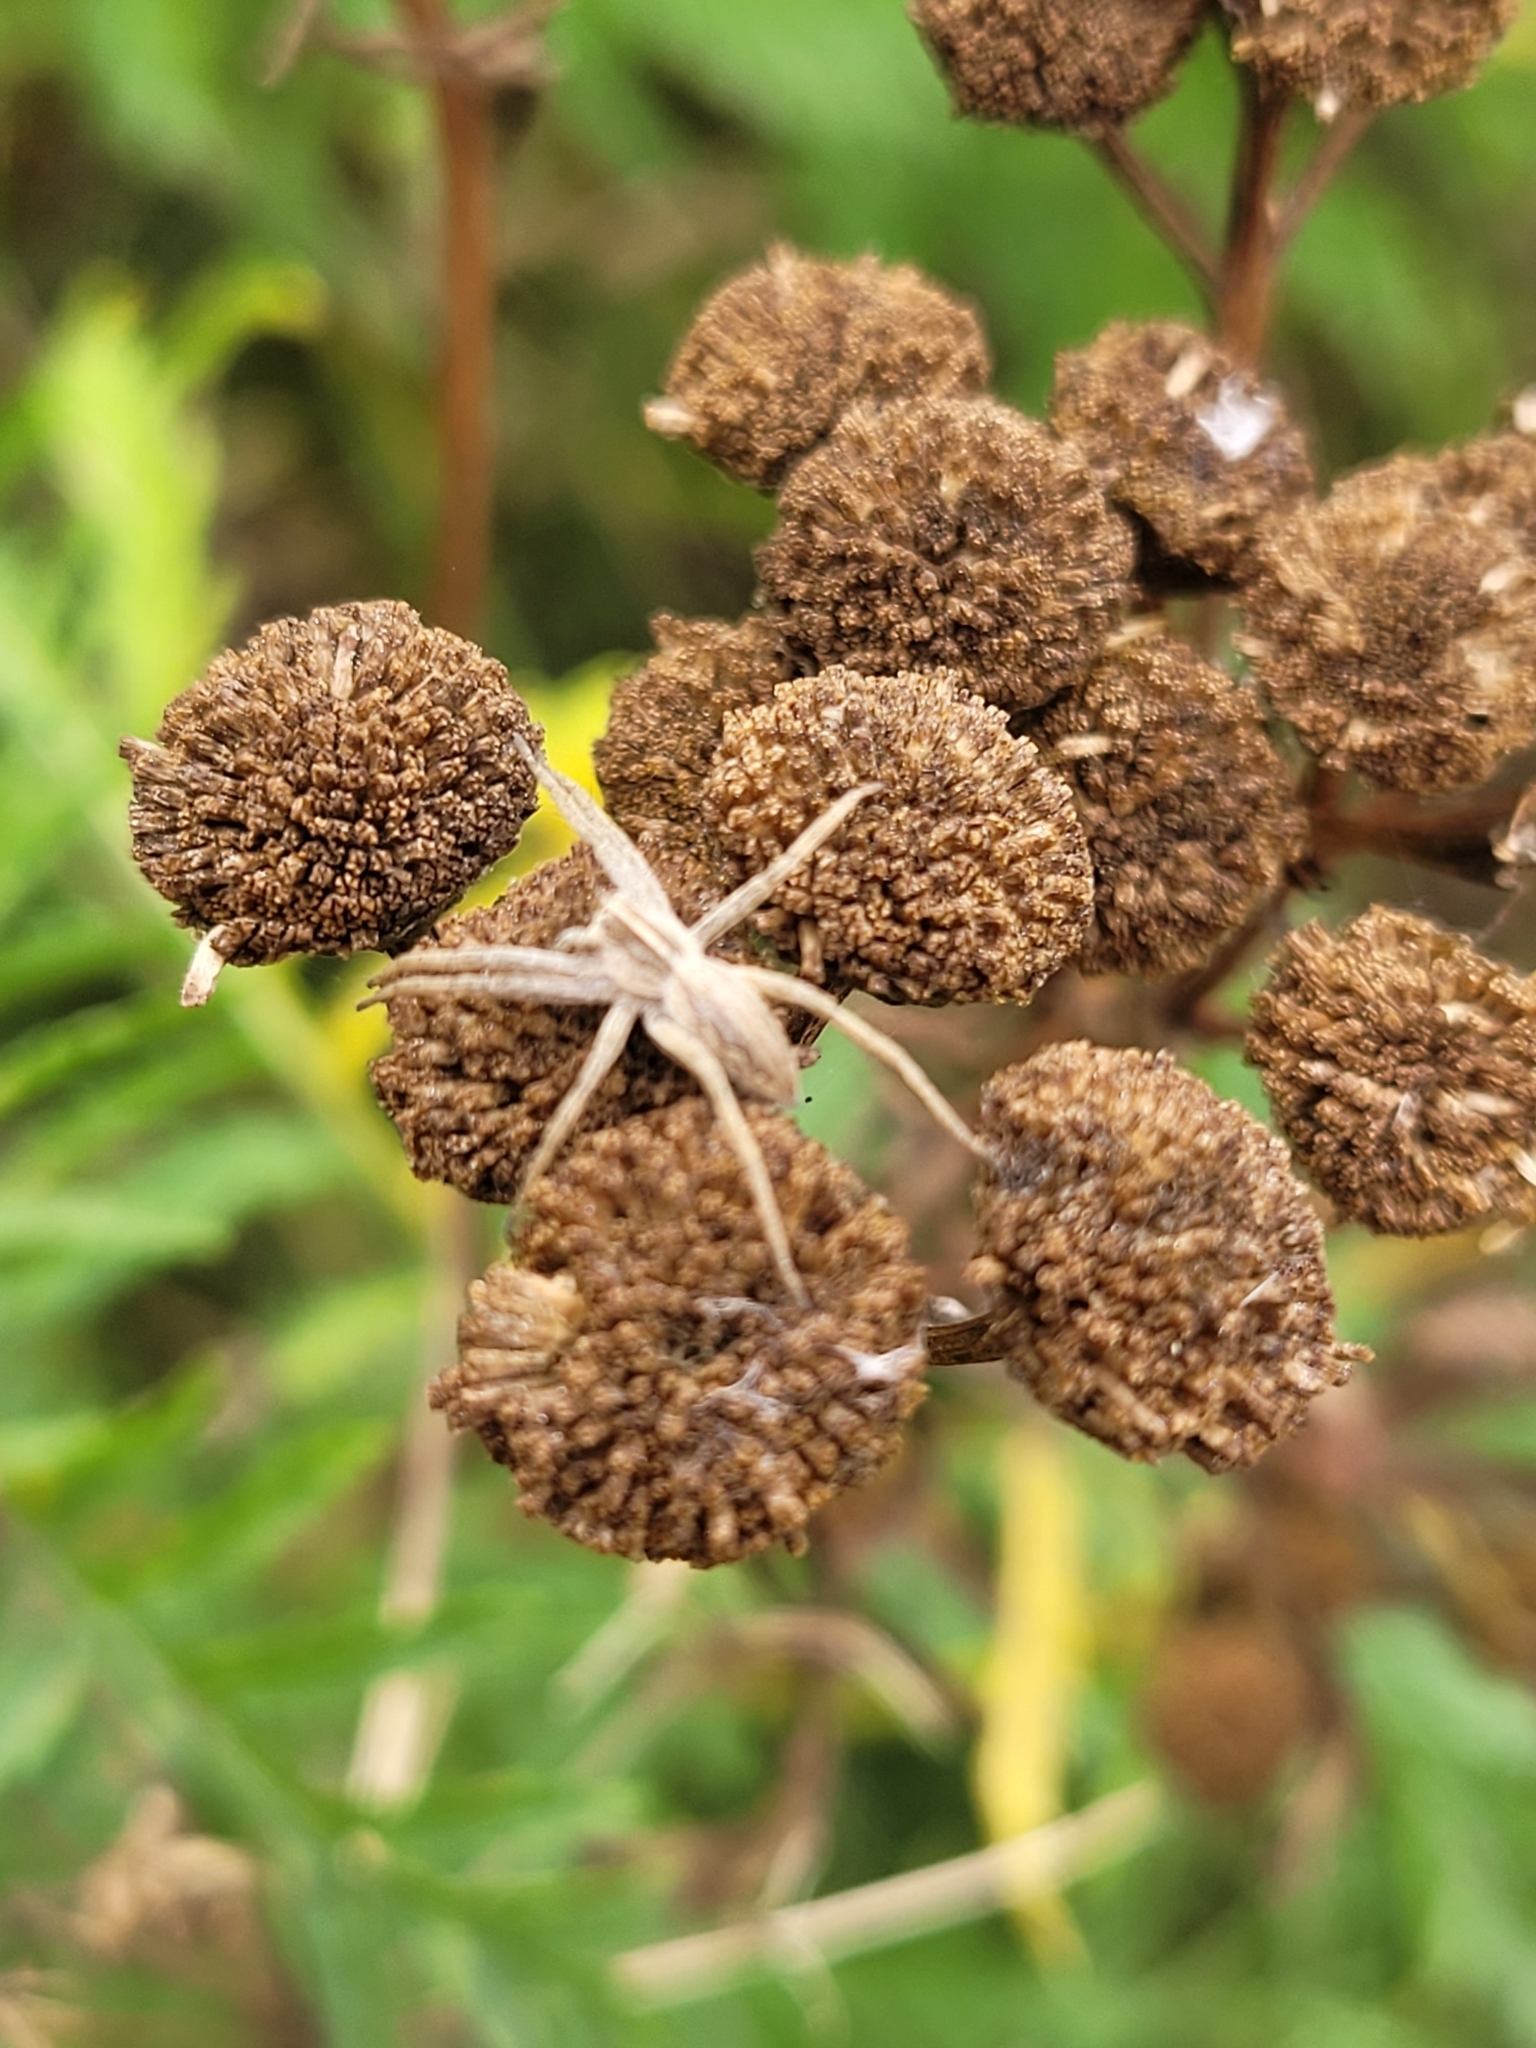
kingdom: Animalia
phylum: Arthropoda
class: Arachnida
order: Araneae
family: Pisauridae
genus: Pisaura
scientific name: Pisaura mirabilis
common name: Tent spider
